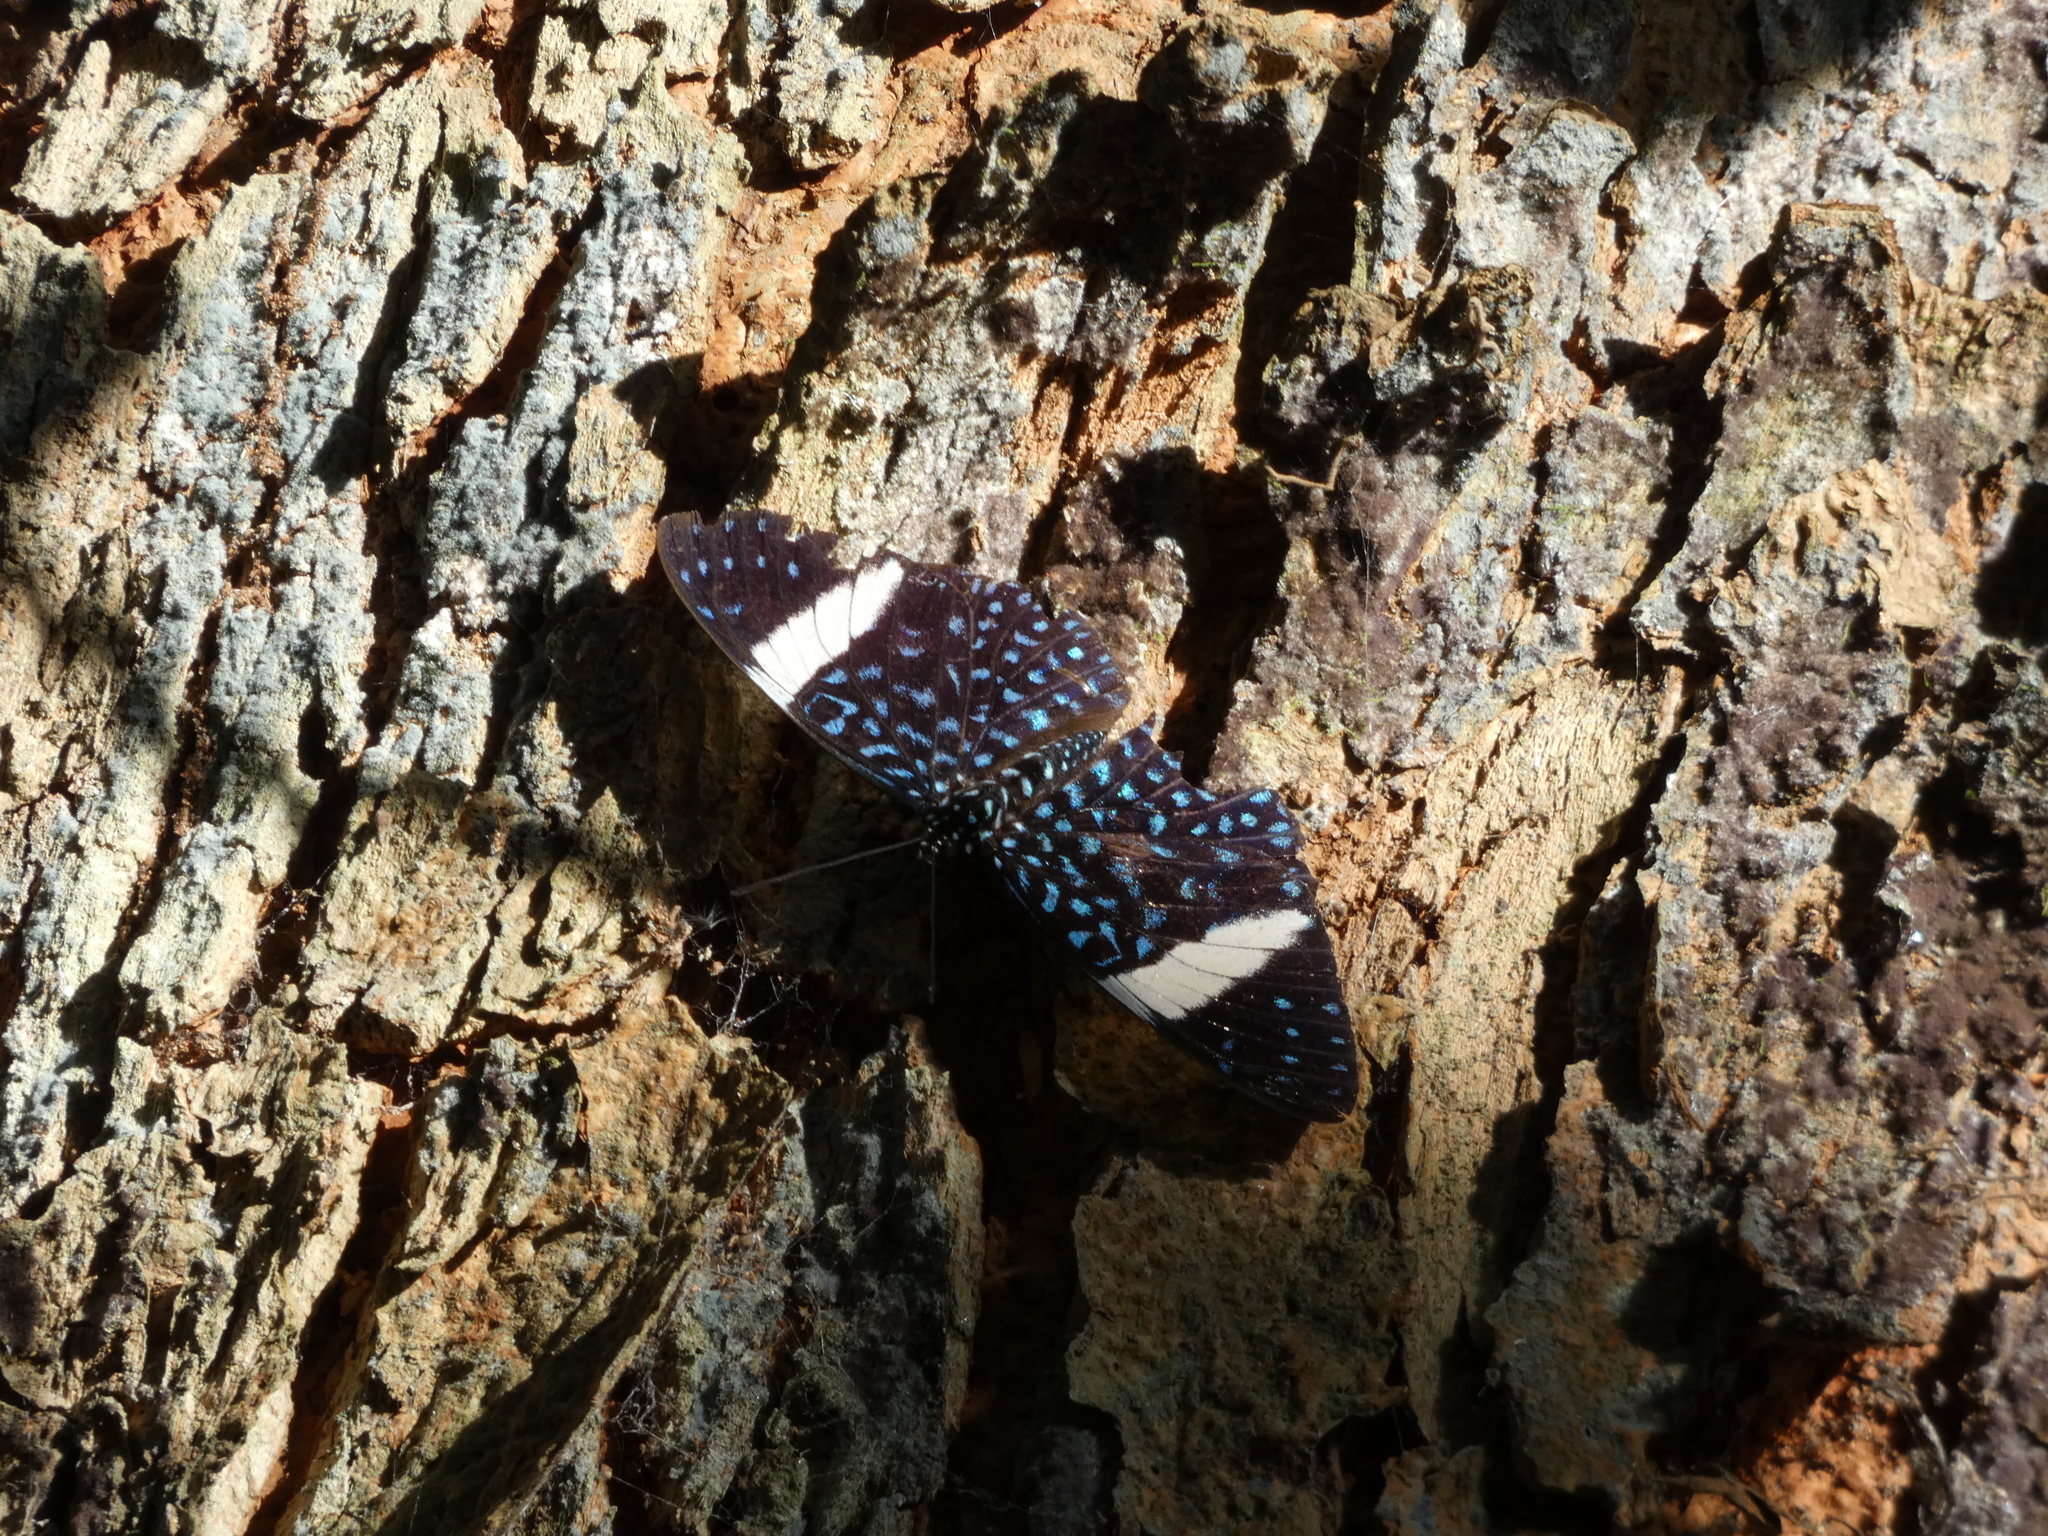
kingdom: Animalia
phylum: Arthropoda
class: Insecta
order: Lepidoptera
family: Nymphalidae
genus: Hamadryas
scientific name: Hamadryas laodamia
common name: Starry night cracker
